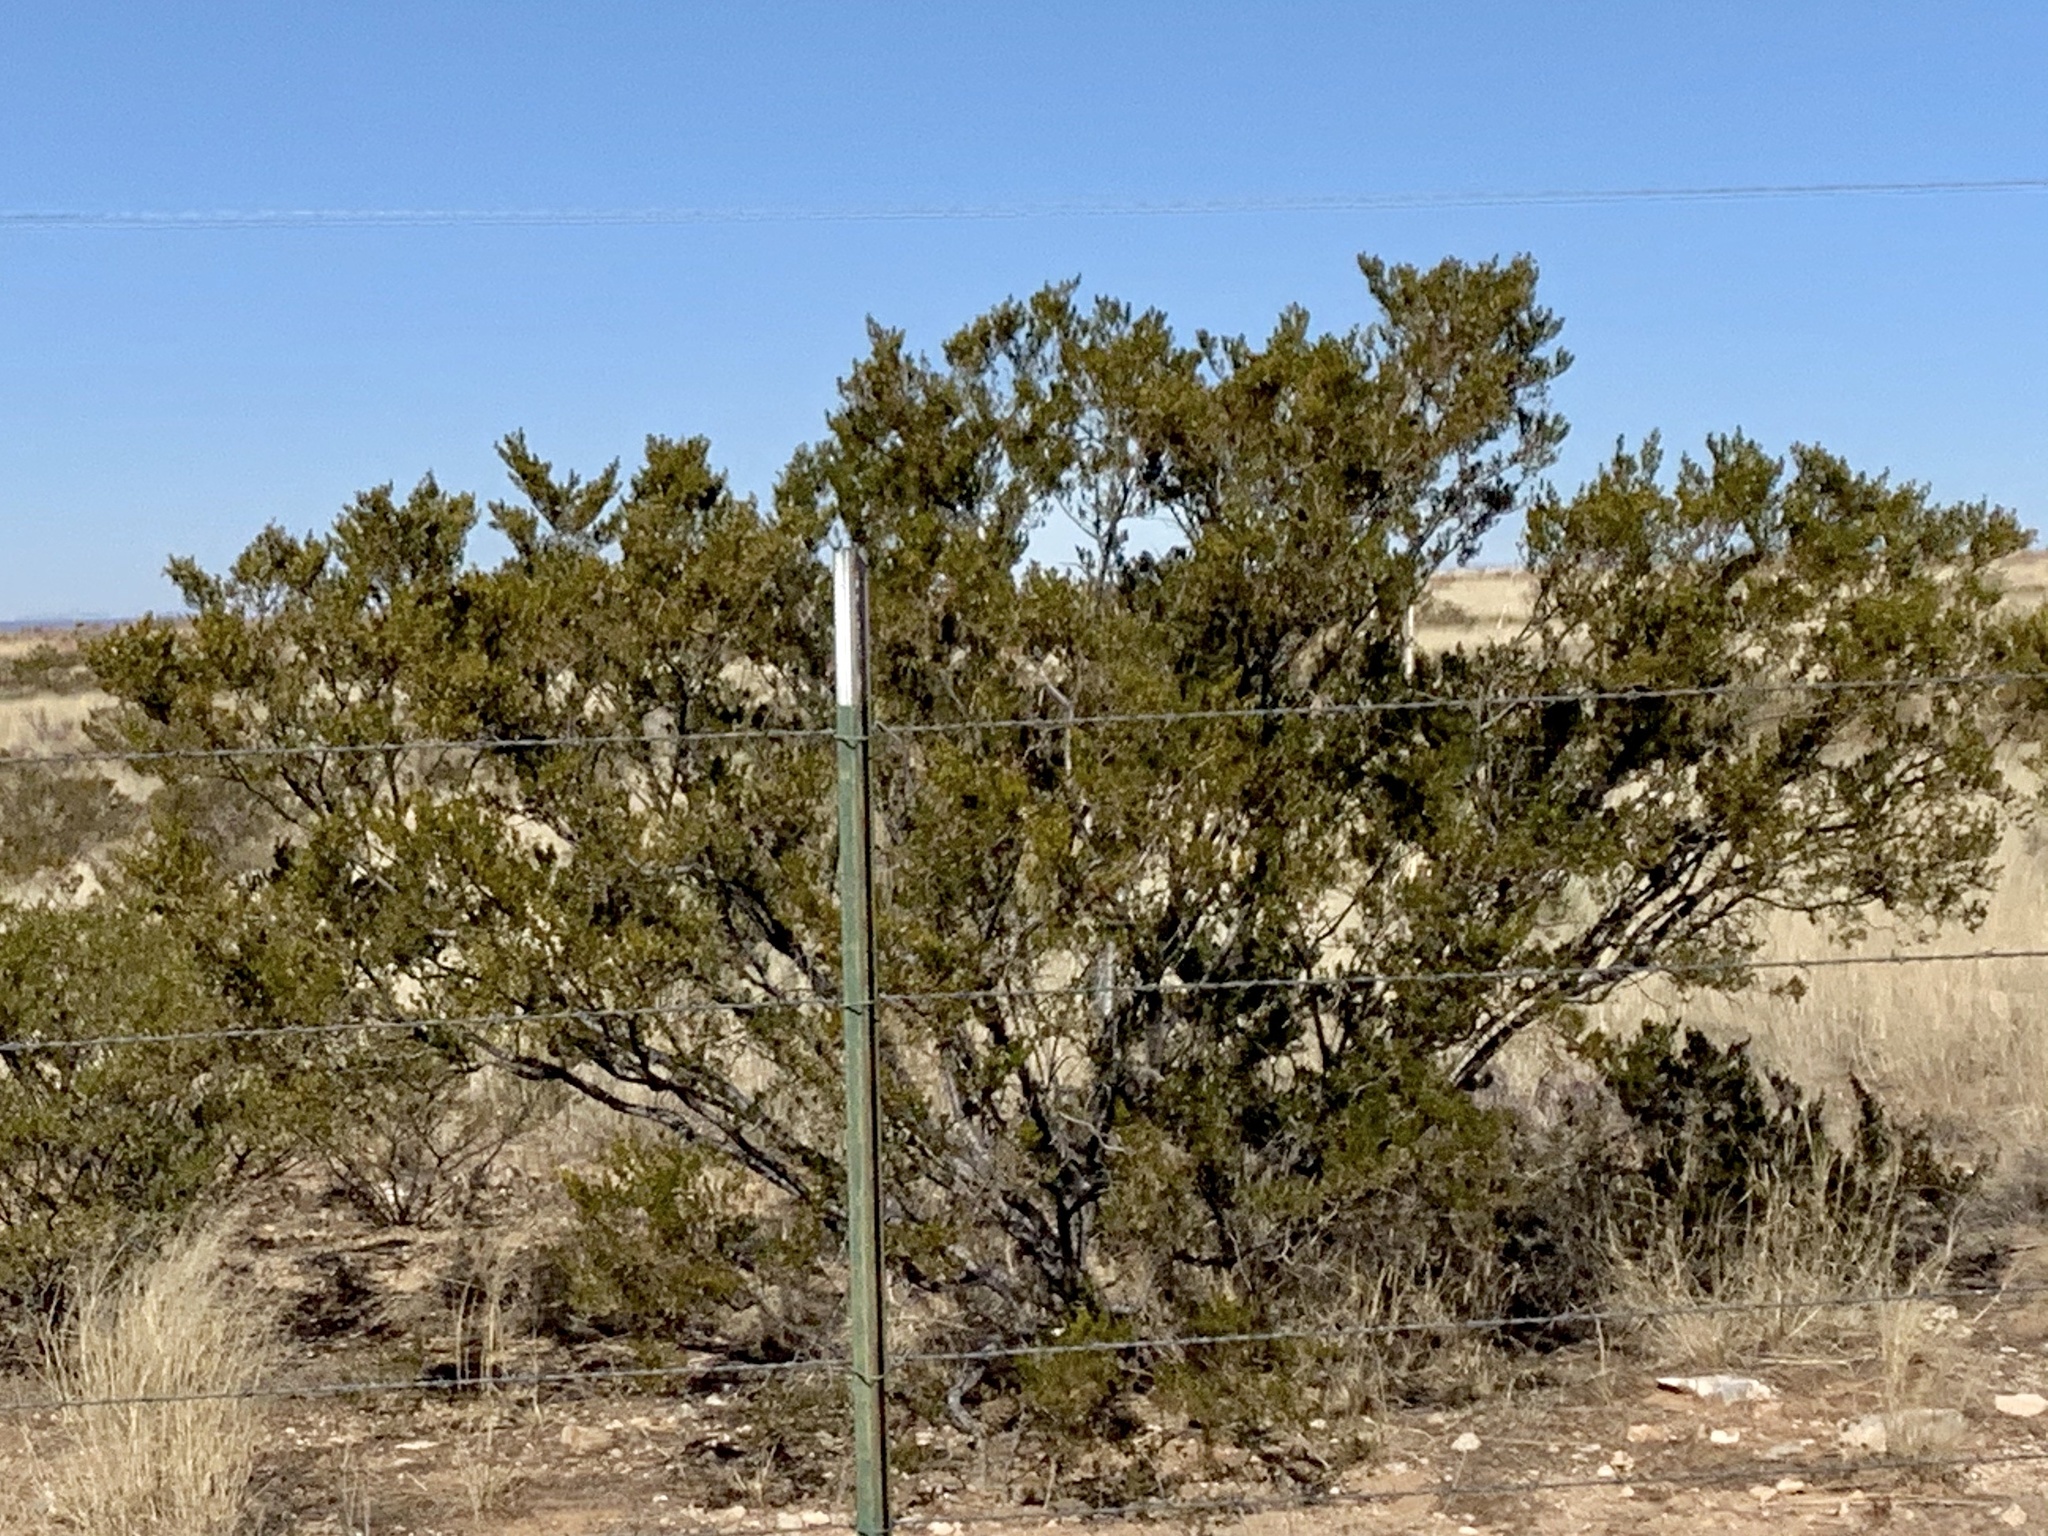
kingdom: Plantae
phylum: Tracheophyta
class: Magnoliopsida
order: Zygophyllales
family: Zygophyllaceae
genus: Larrea
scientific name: Larrea tridentata
